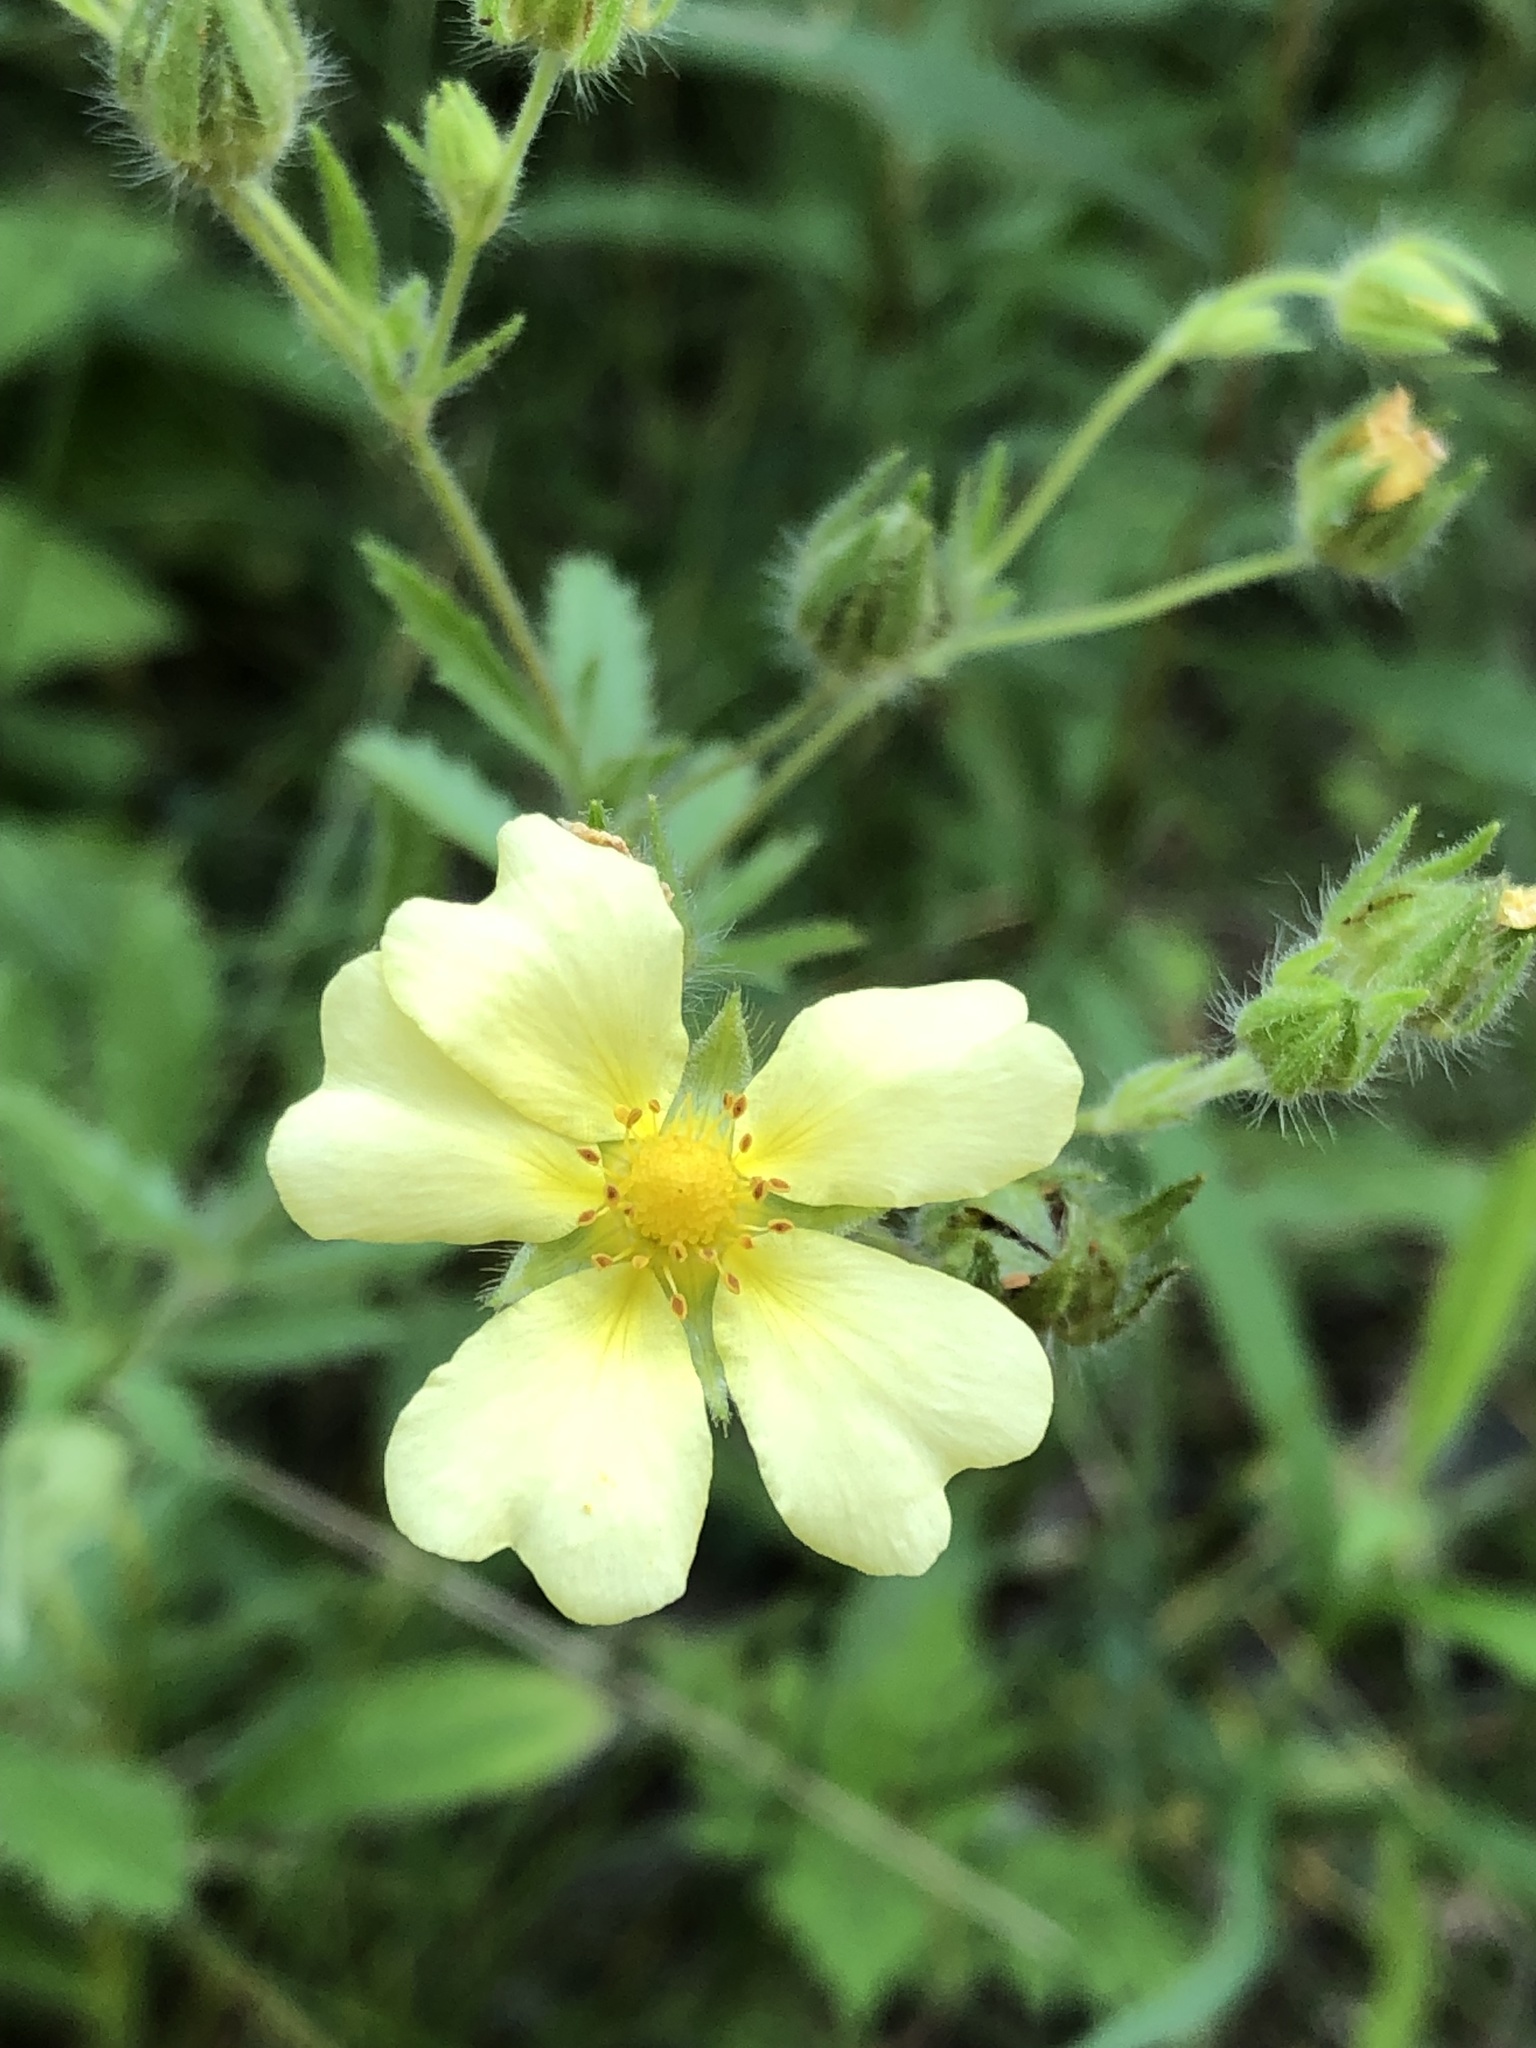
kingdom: Plantae
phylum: Tracheophyta
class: Magnoliopsida
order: Rosales
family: Rosaceae
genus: Potentilla
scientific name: Potentilla recta
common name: Sulphur cinquefoil
